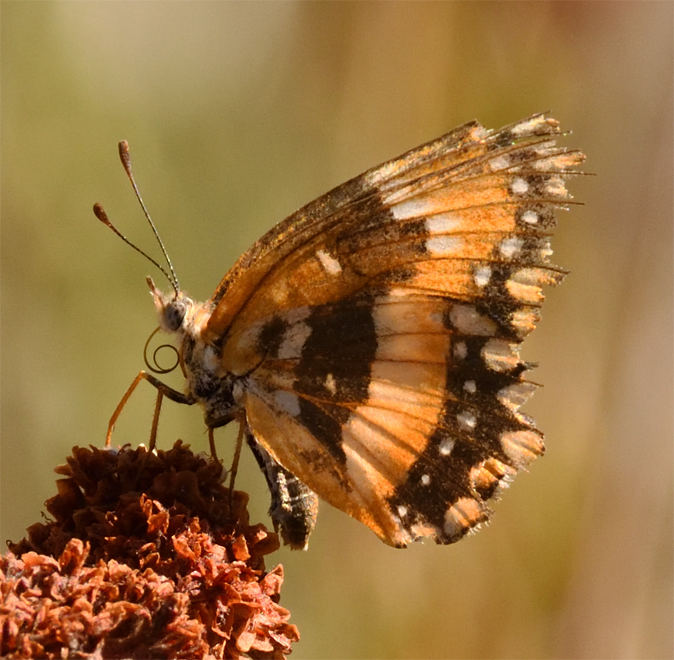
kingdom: Animalia
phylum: Arthropoda
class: Insecta
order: Lepidoptera
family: Nymphalidae
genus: Chlosyne
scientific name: Chlosyne californica
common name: California patch
